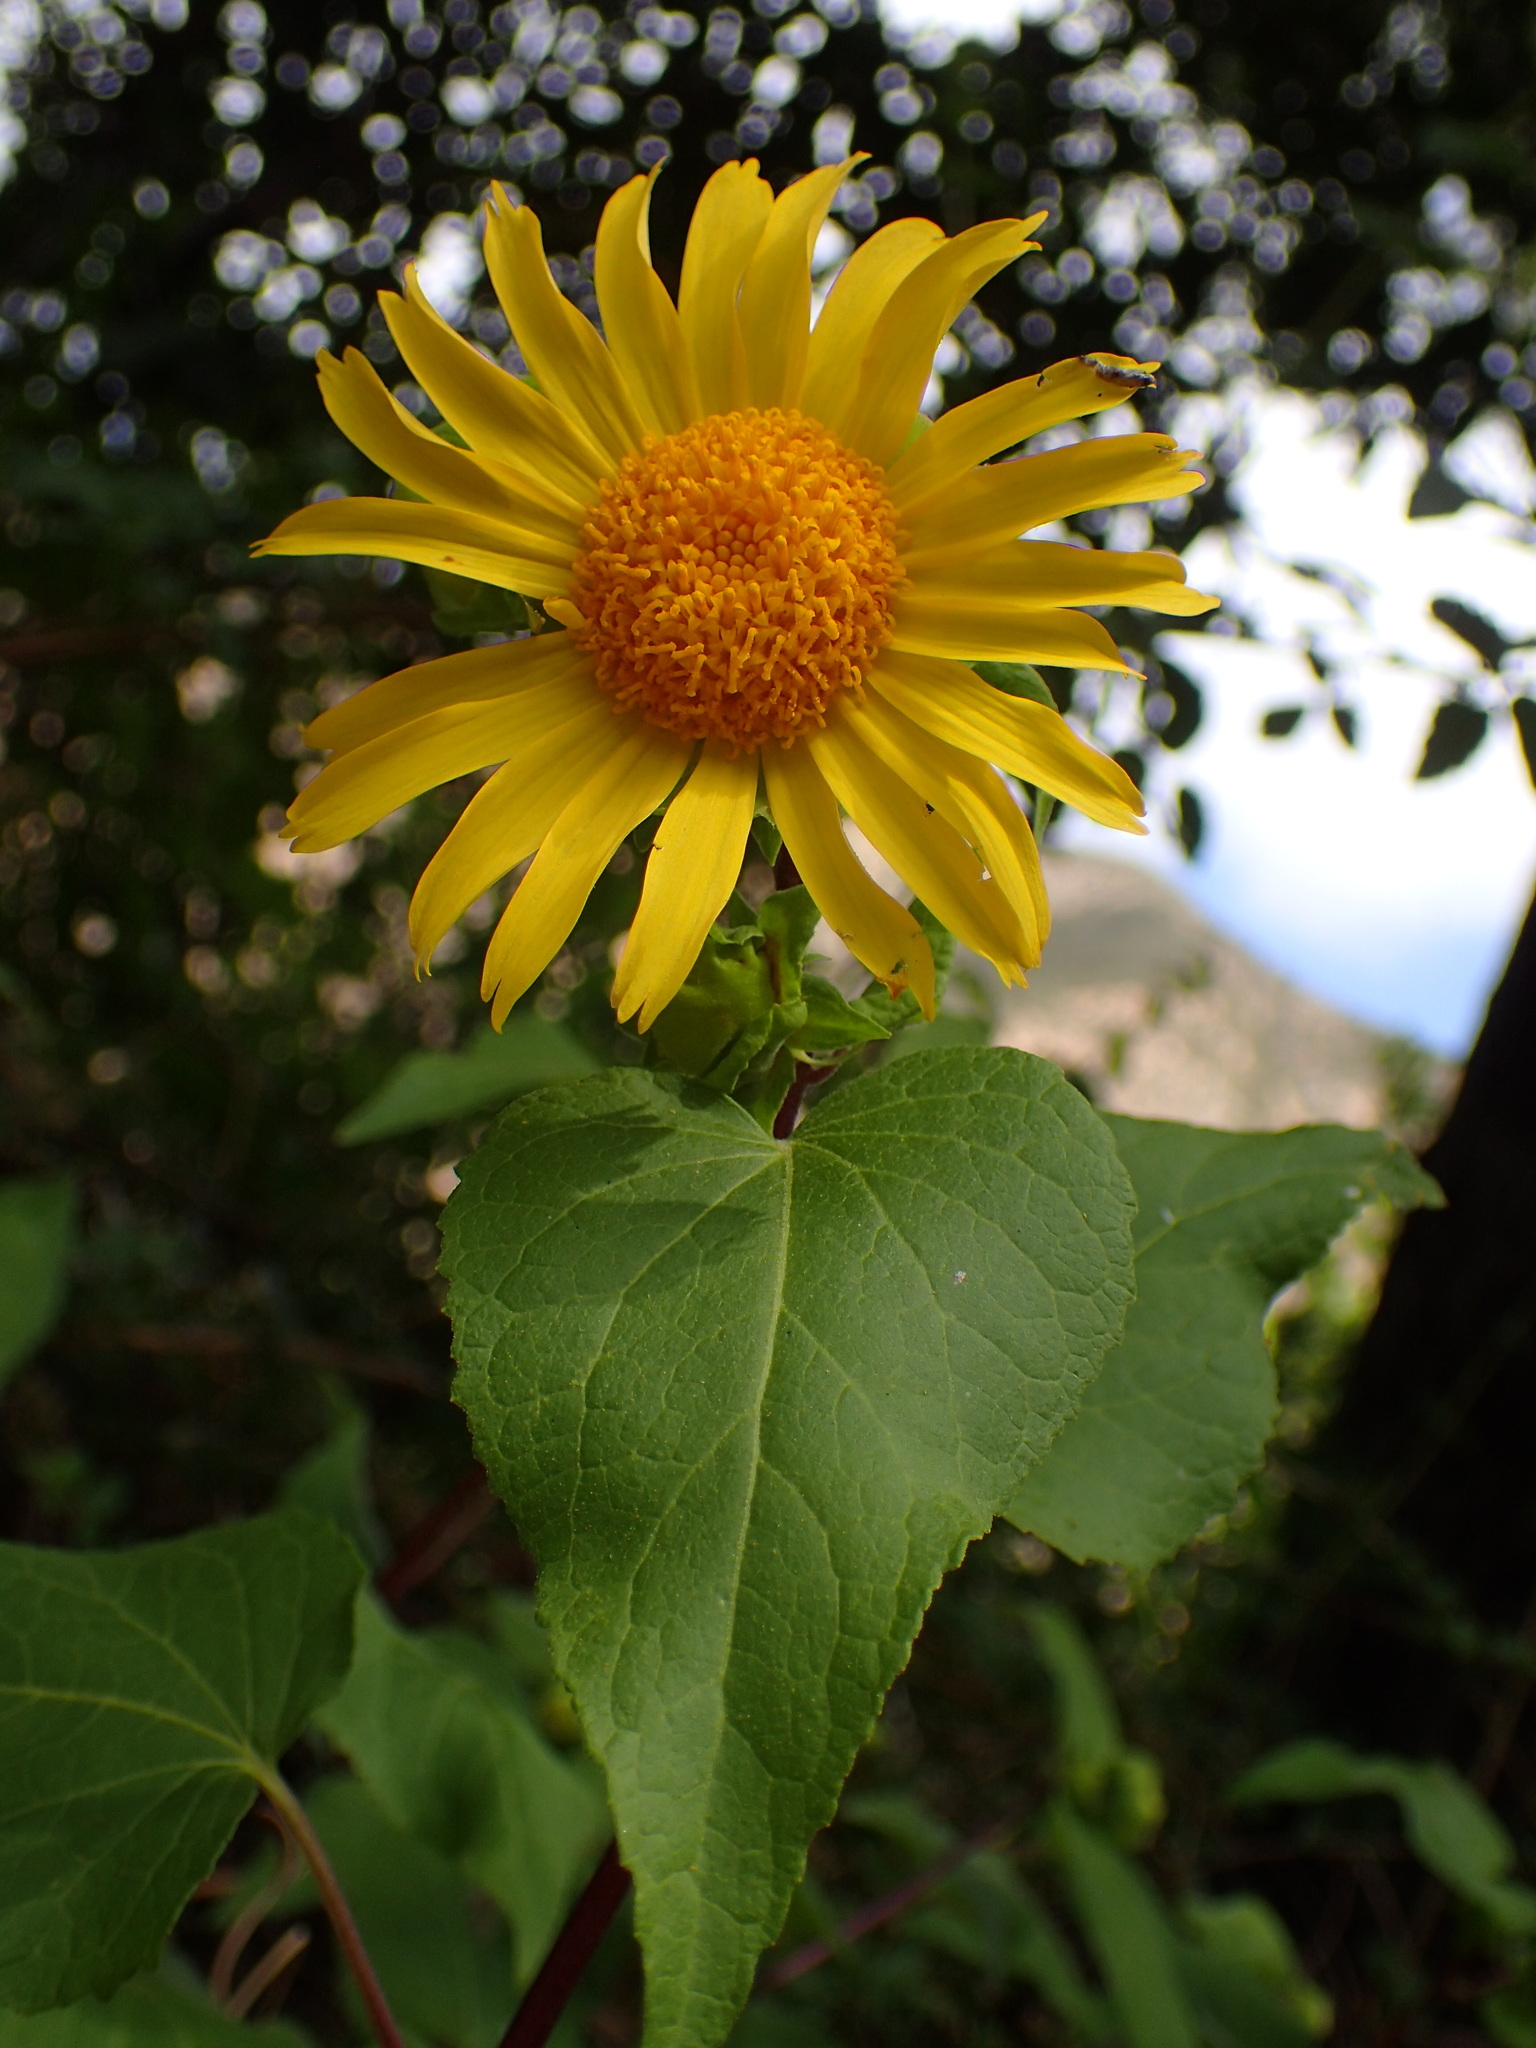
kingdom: Plantae
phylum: Tracheophyta
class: Magnoliopsida
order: Asterales
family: Asteraceae
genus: Venegasia
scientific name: Venegasia carpesioides
